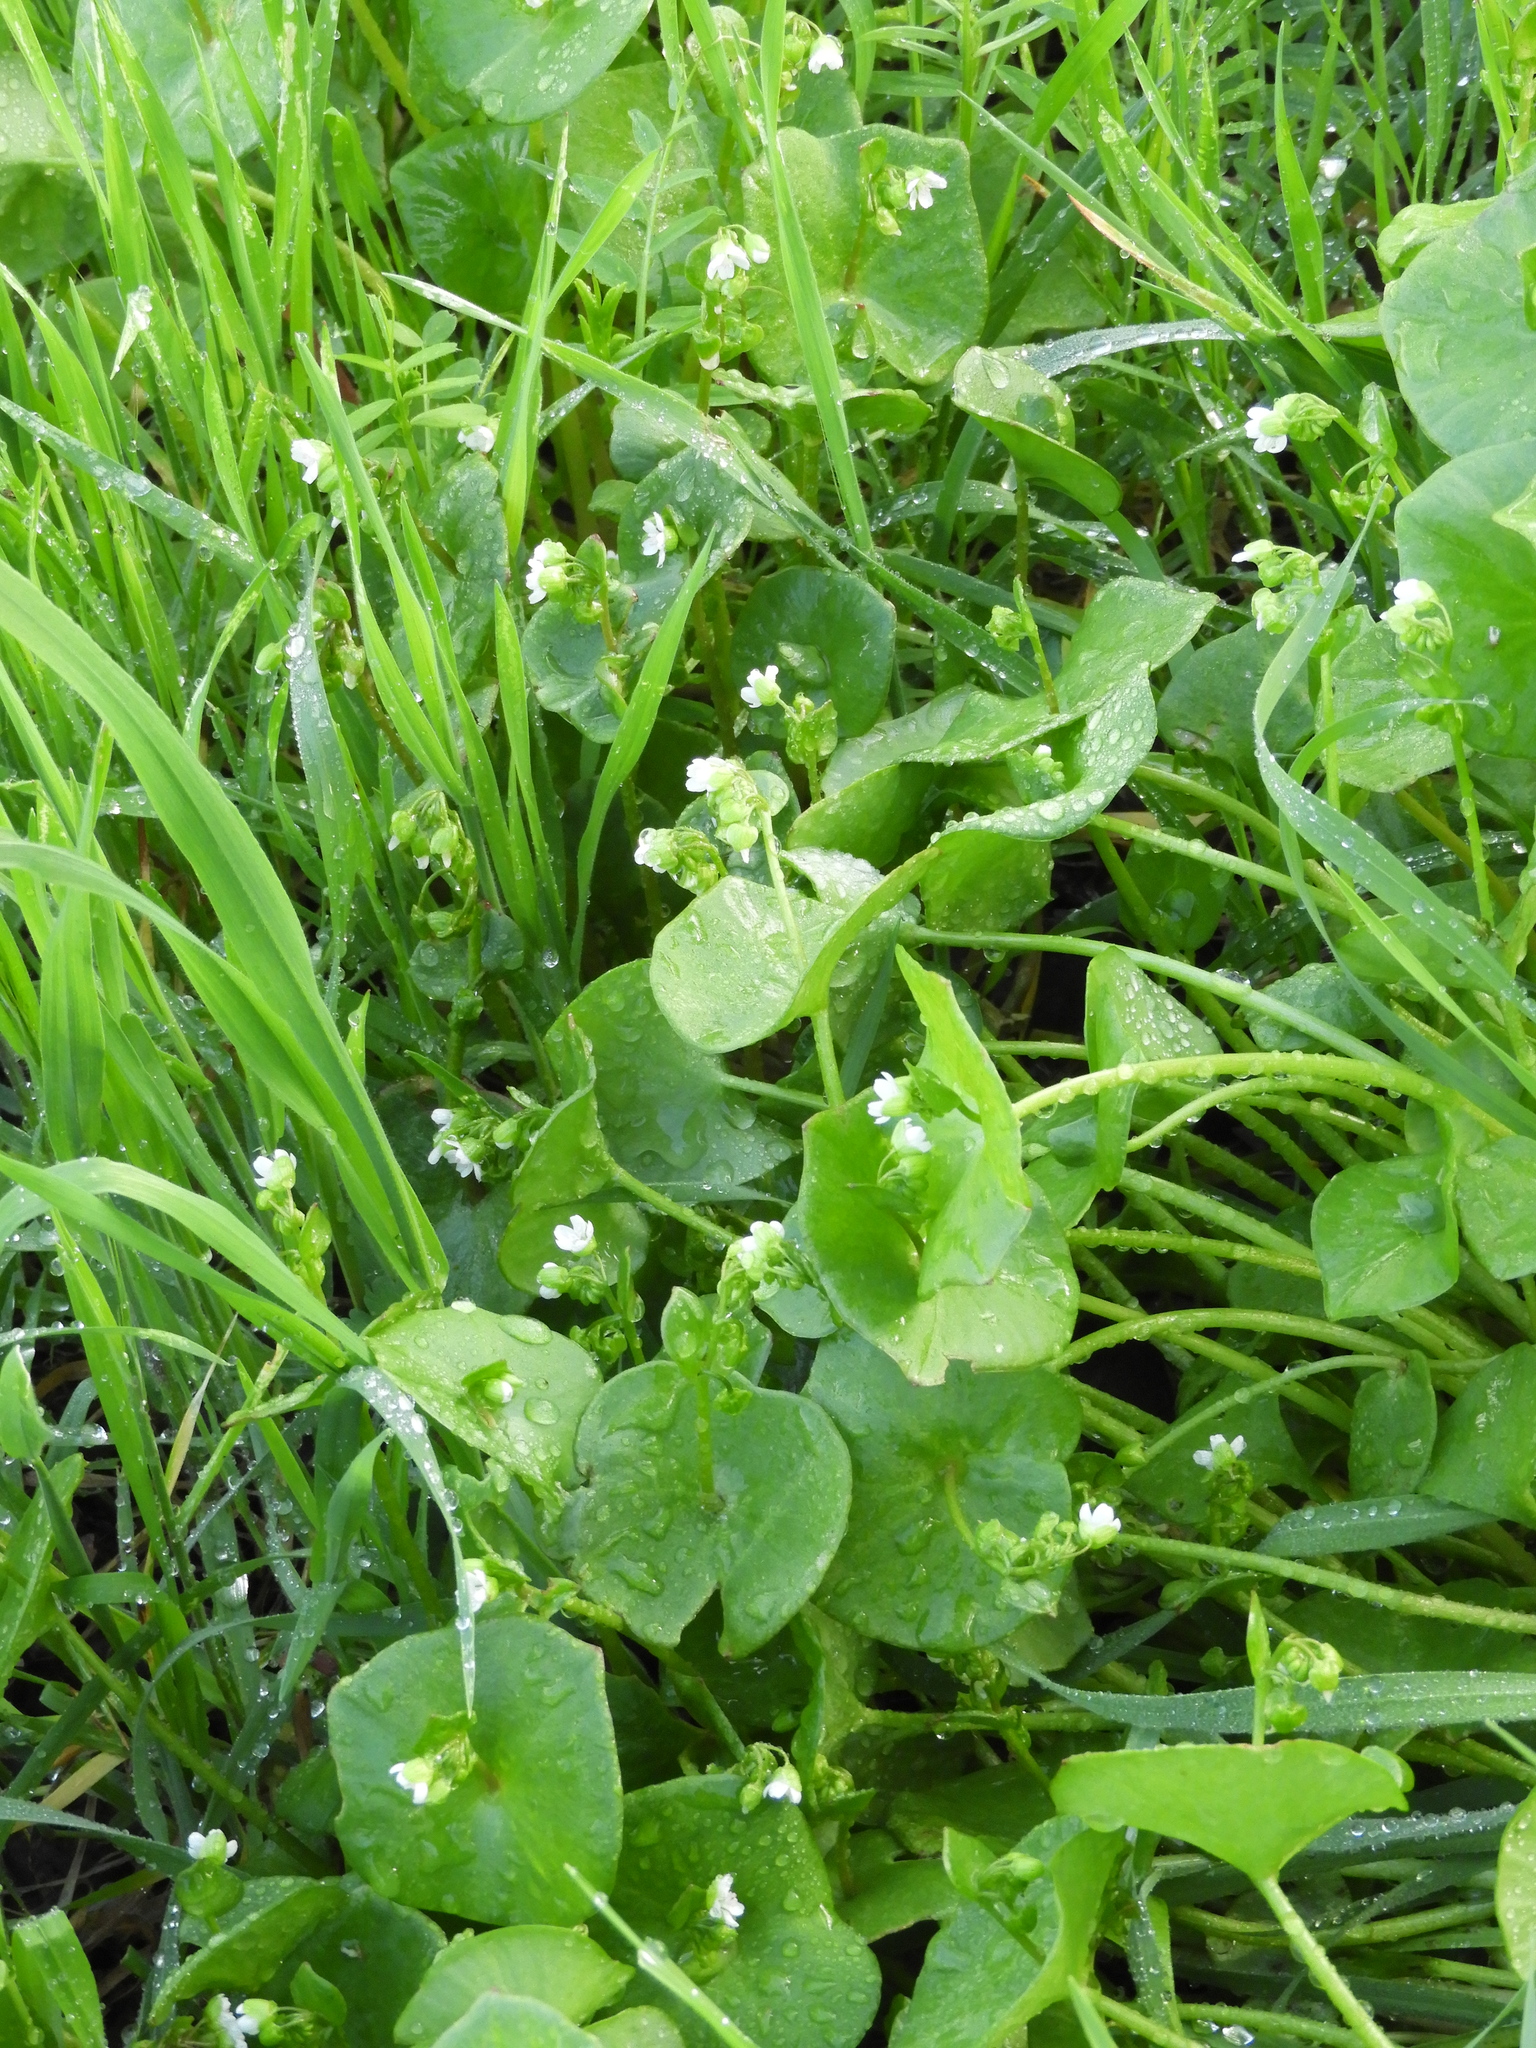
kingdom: Plantae
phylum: Tracheophyta
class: Magnoliopsida
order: Caryophyllales
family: Montiaceae
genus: Claytonia
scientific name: Claytonia perfoliata
